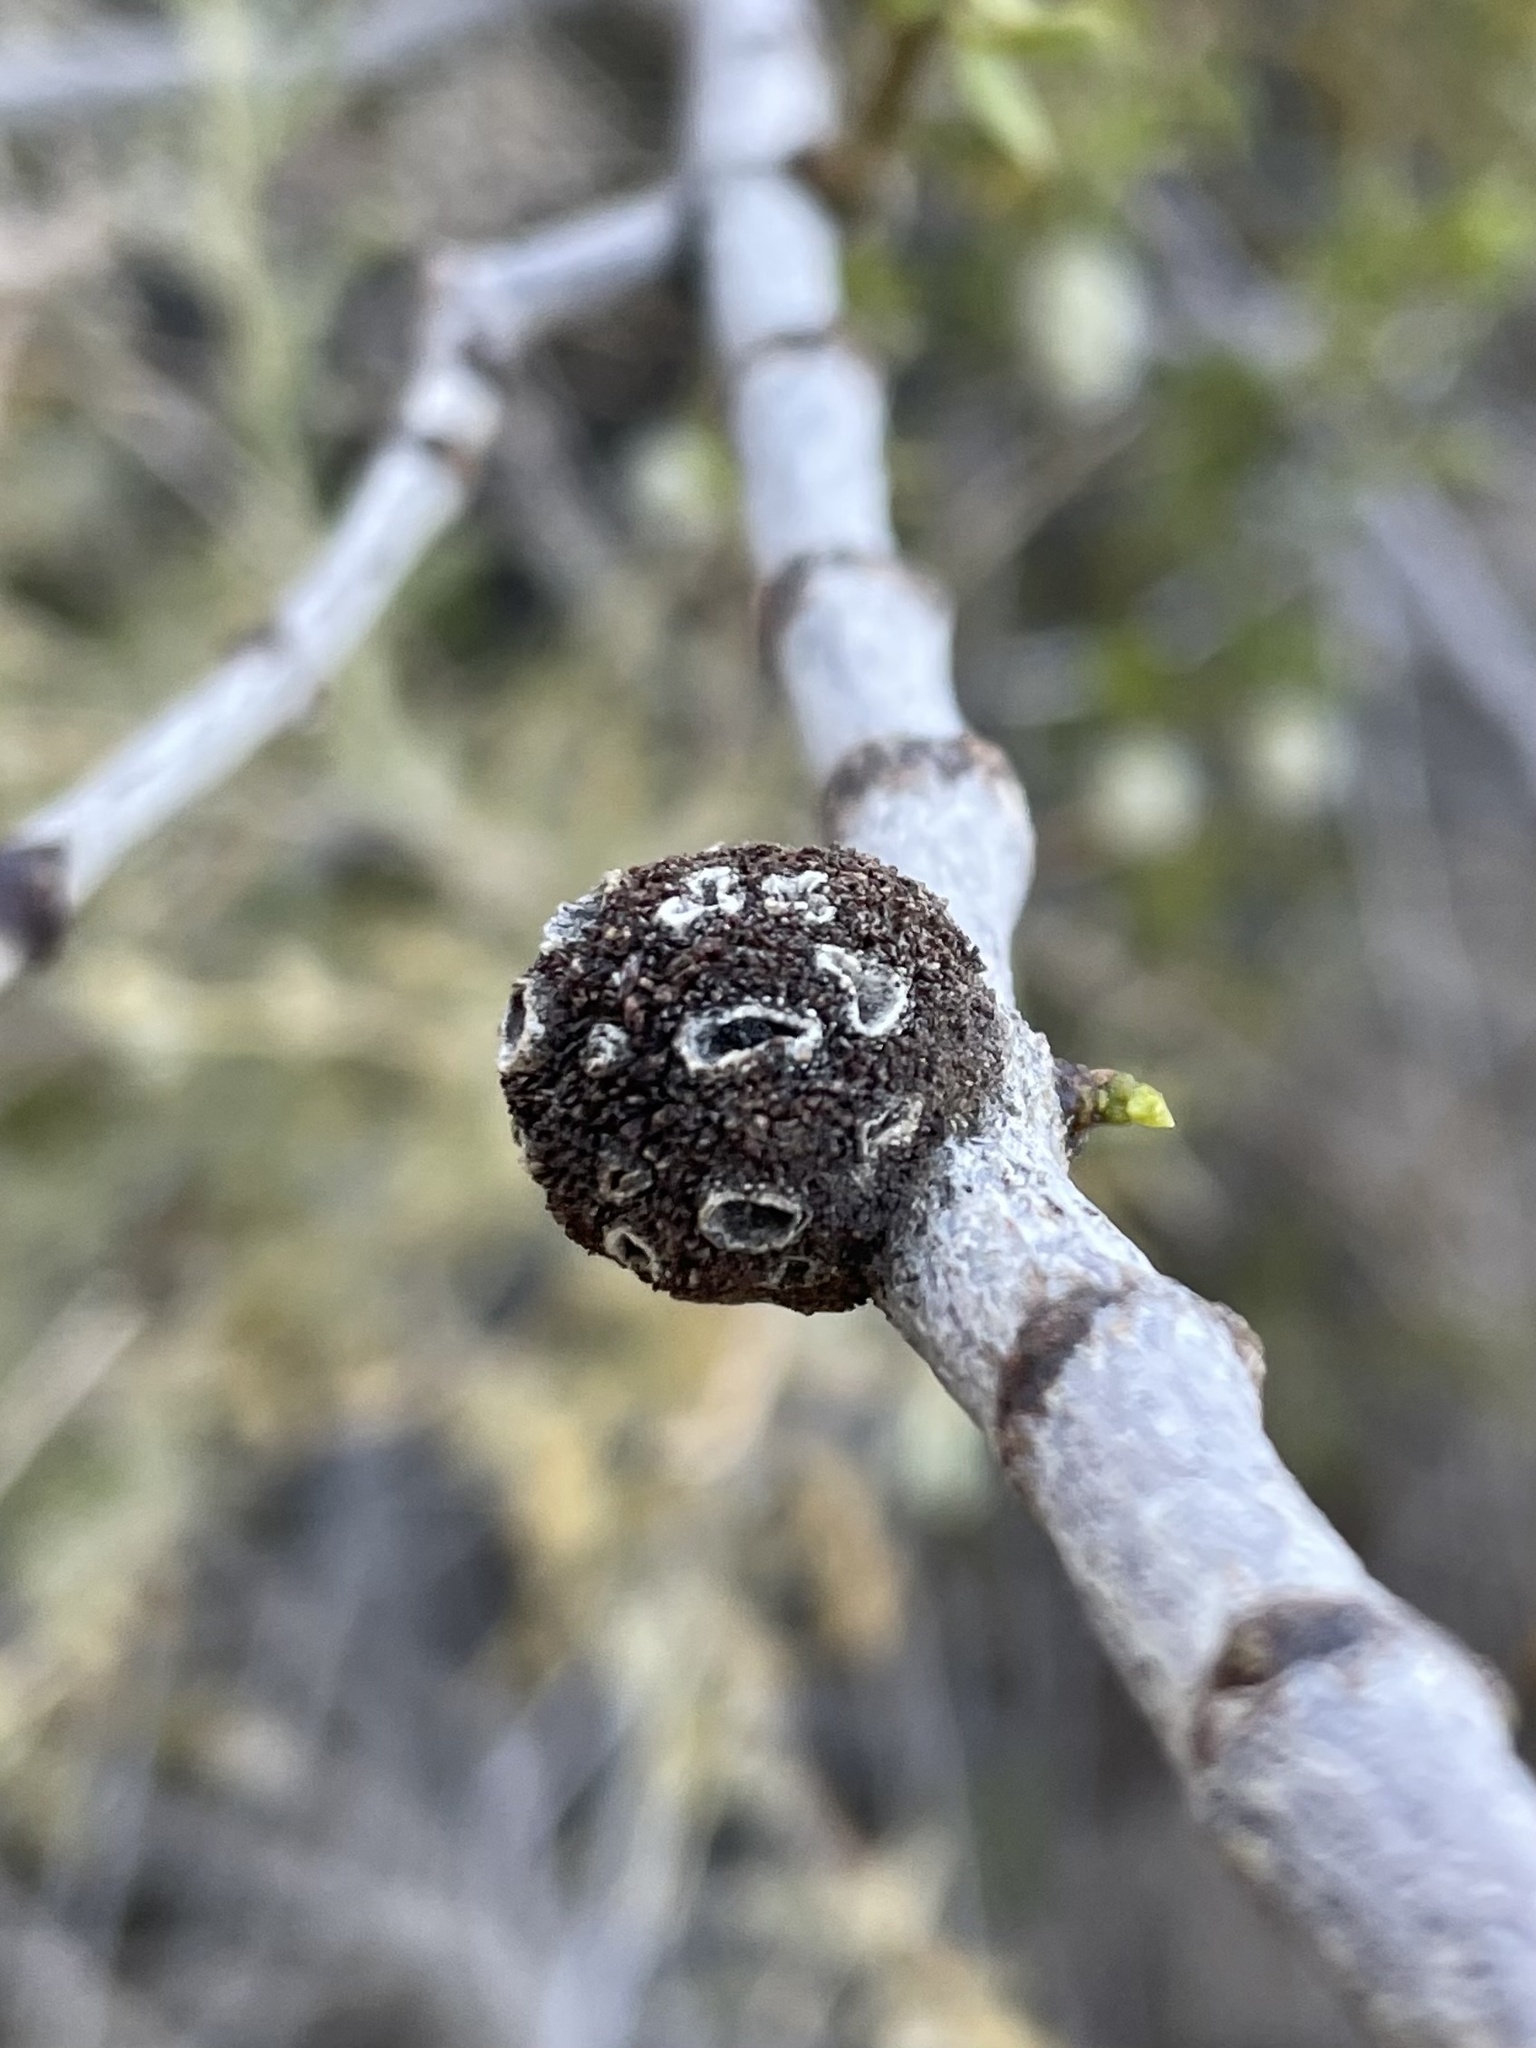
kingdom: Animalia
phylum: Arthropoda
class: Insecta
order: Diptera
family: Cecidomyiidae
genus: Asphondylia
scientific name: Asphondylia auripila
